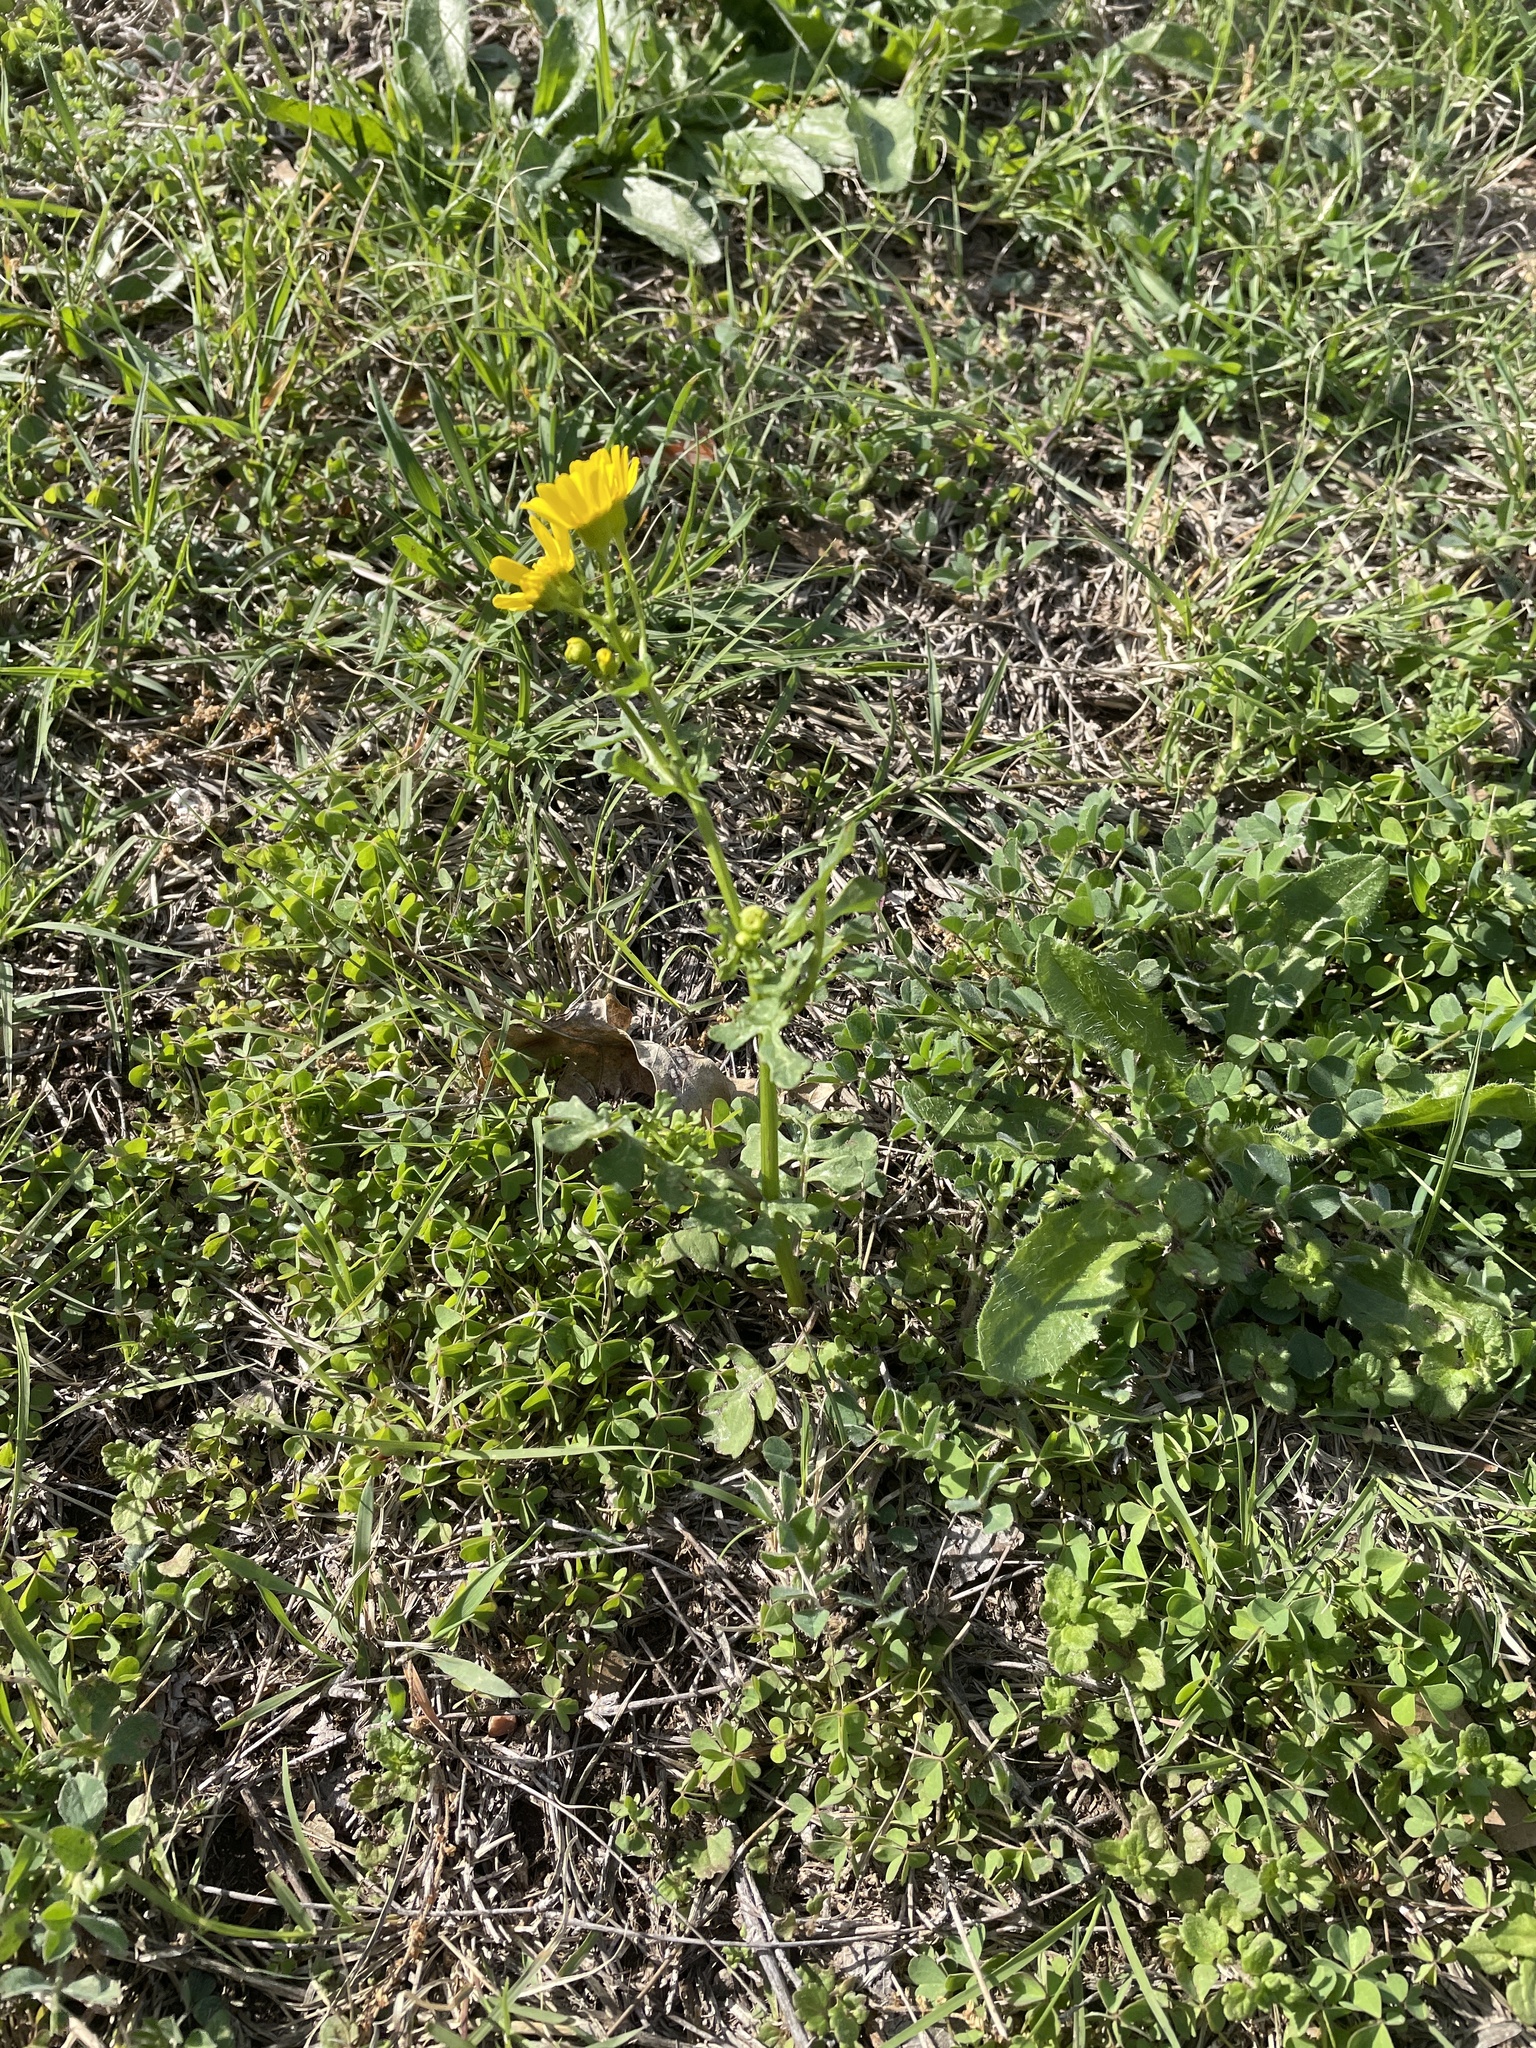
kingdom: Plantae
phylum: Tracheophyta
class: Magnoliopsida
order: Asterales
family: Asteraceae
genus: Packera
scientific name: Packera tampicana
